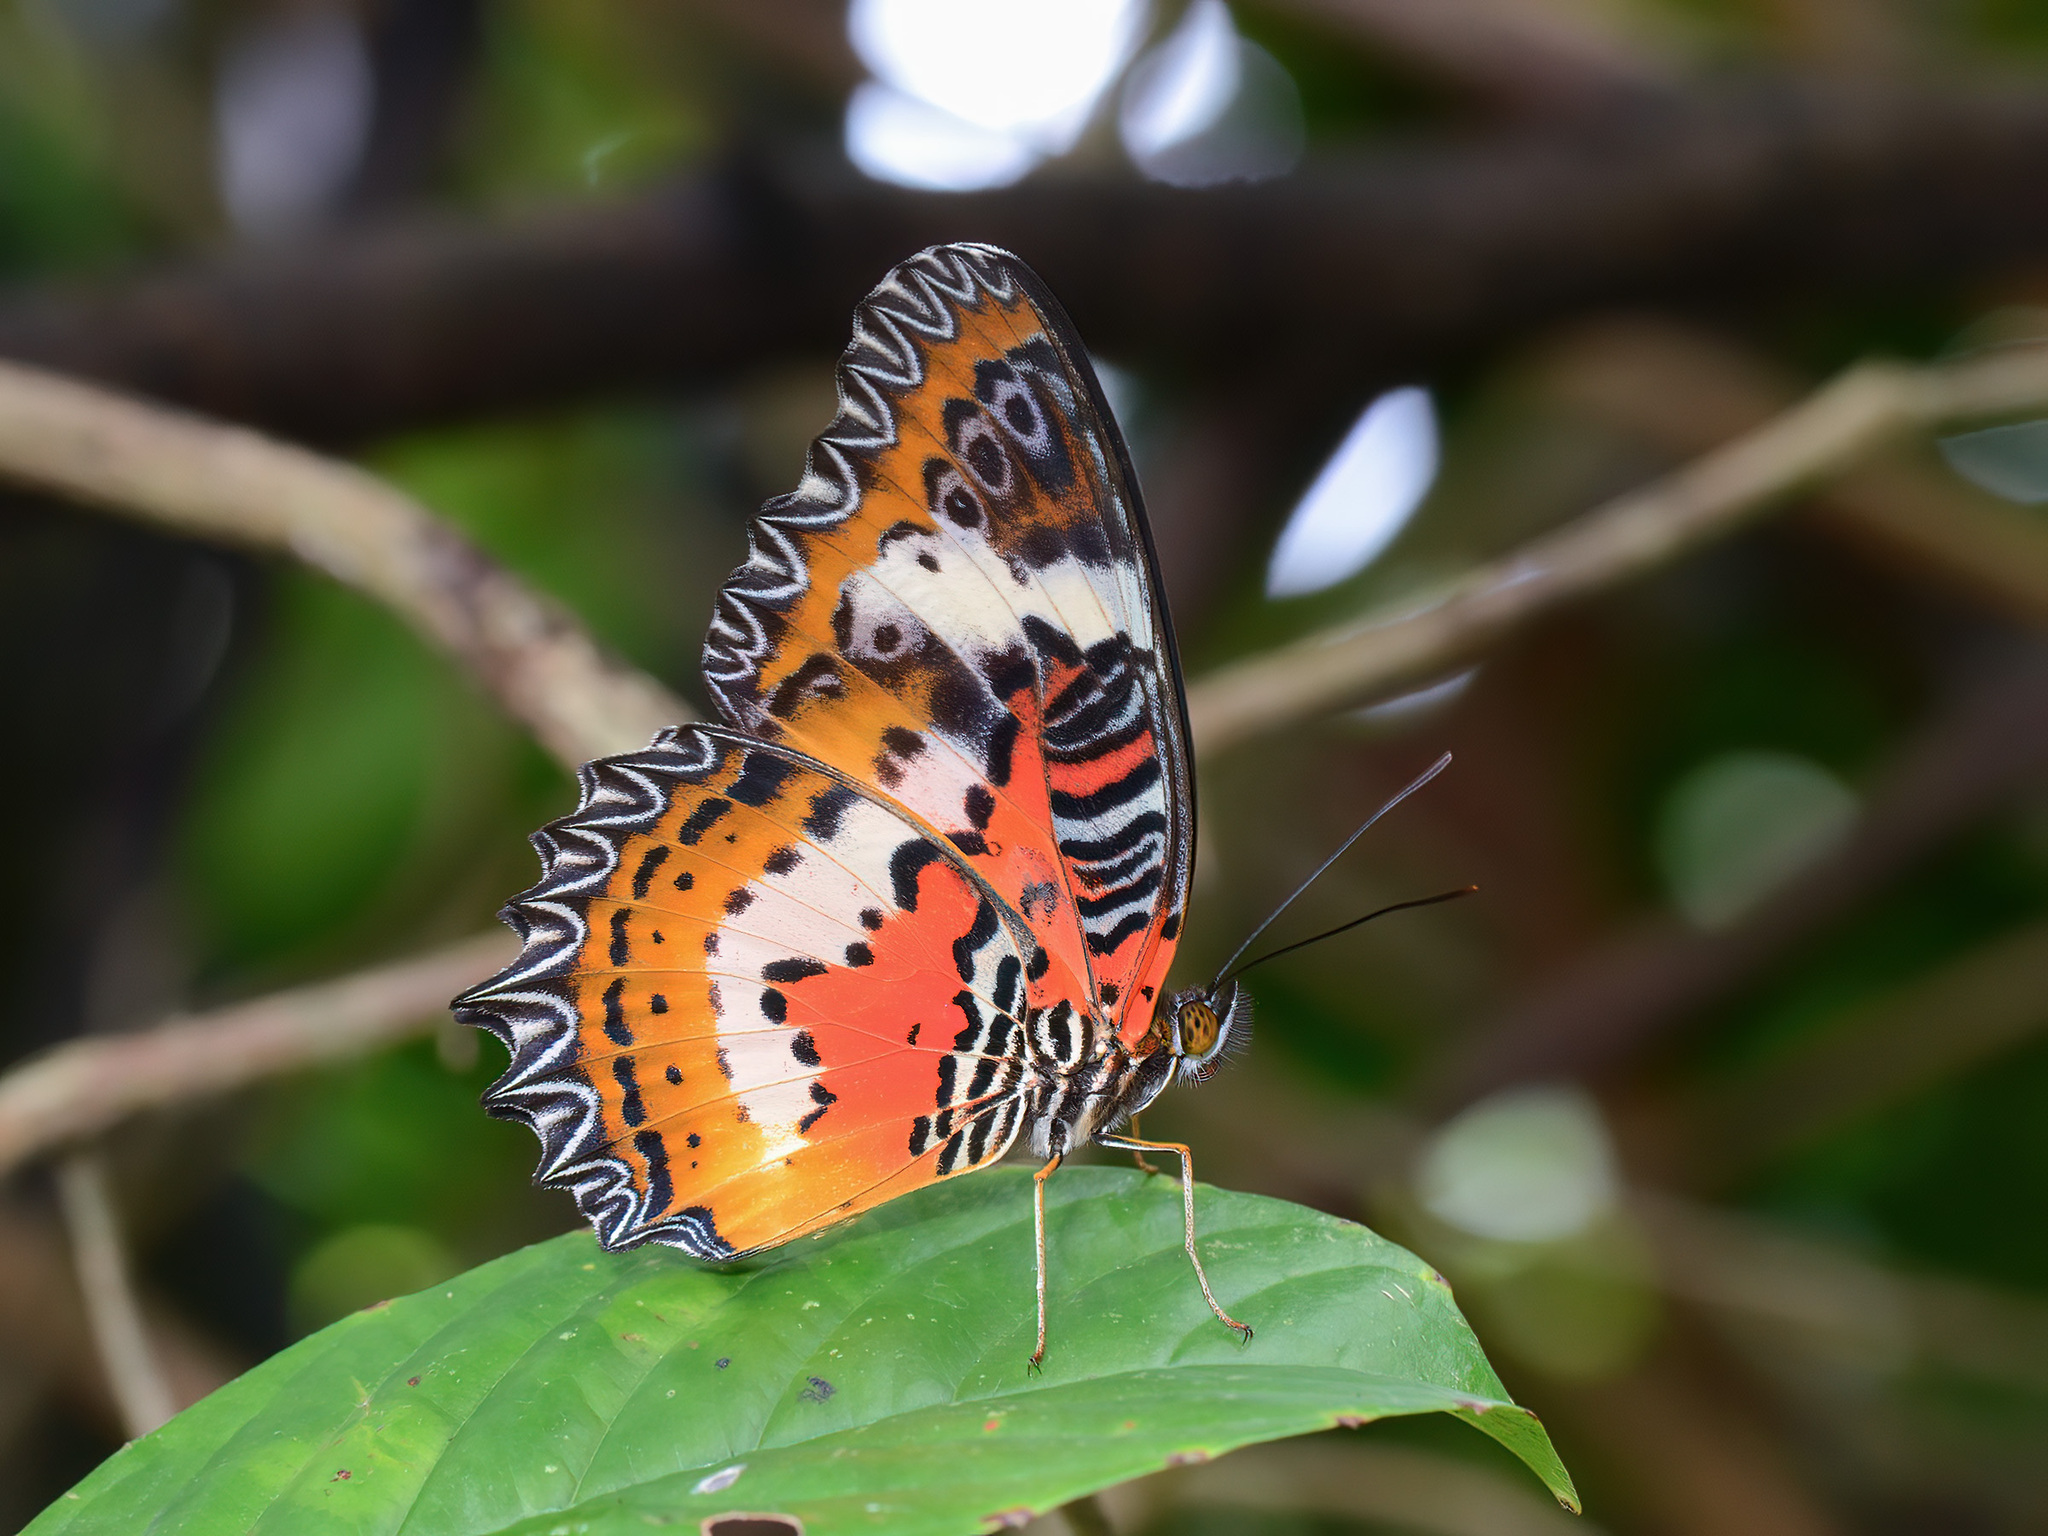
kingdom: Animalia
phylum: Arthropoda
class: Insecta
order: Lepidoptera
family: Nymphalidae
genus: Cethosia
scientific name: Cethosia hypsea
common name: Malayan lacewing butterfly
